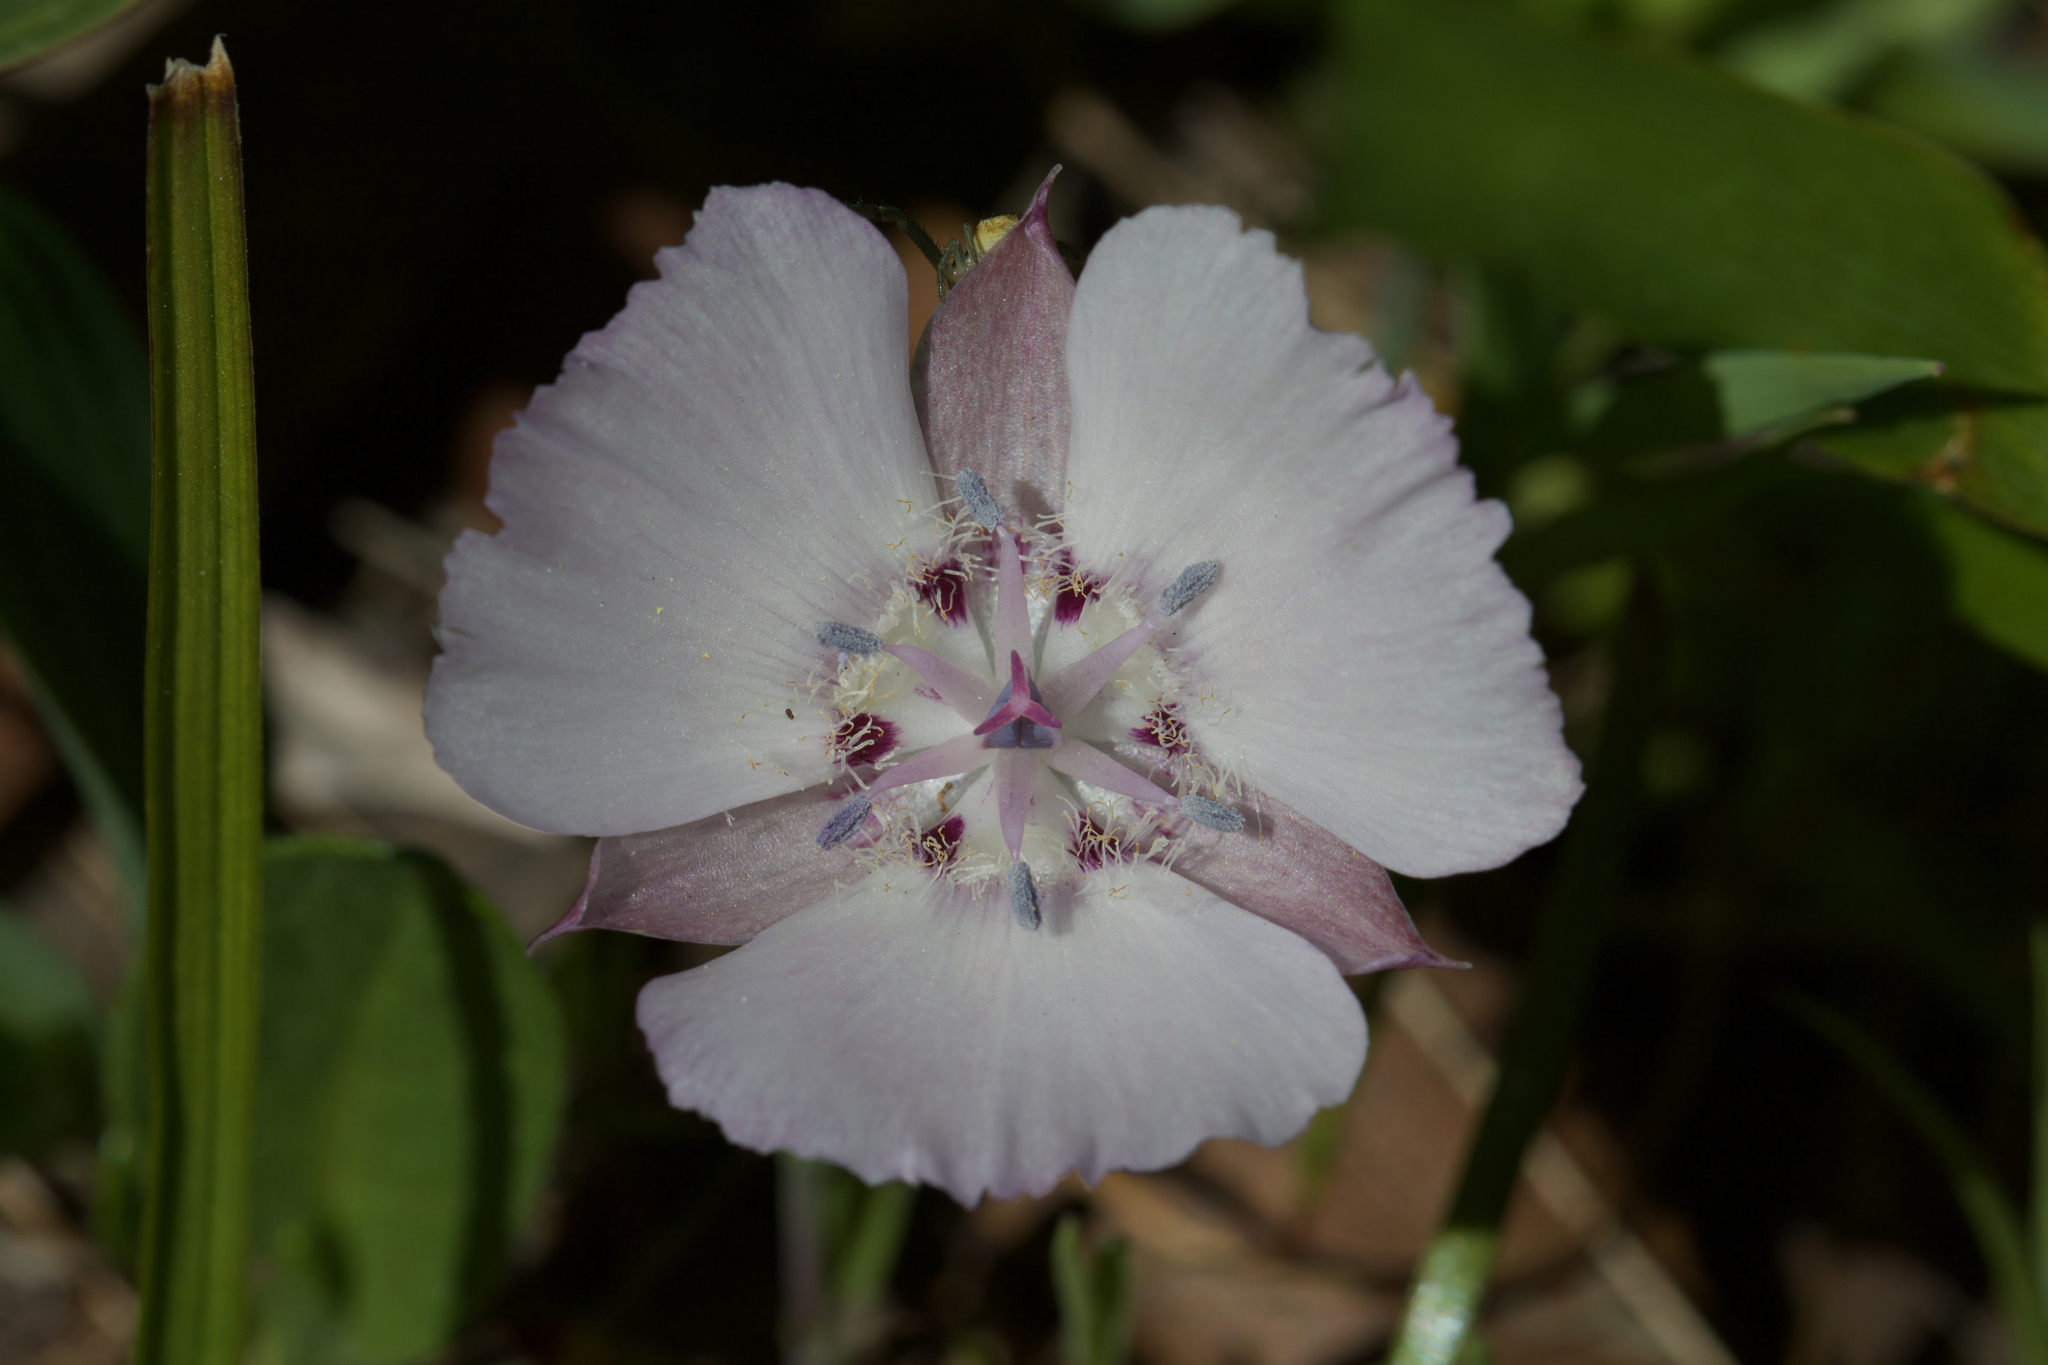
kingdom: Plantae
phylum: Tracheophyta
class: Liliopsida
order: Liliales
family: Liliaceae
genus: Calochortus
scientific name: Calochortus umbellatus
